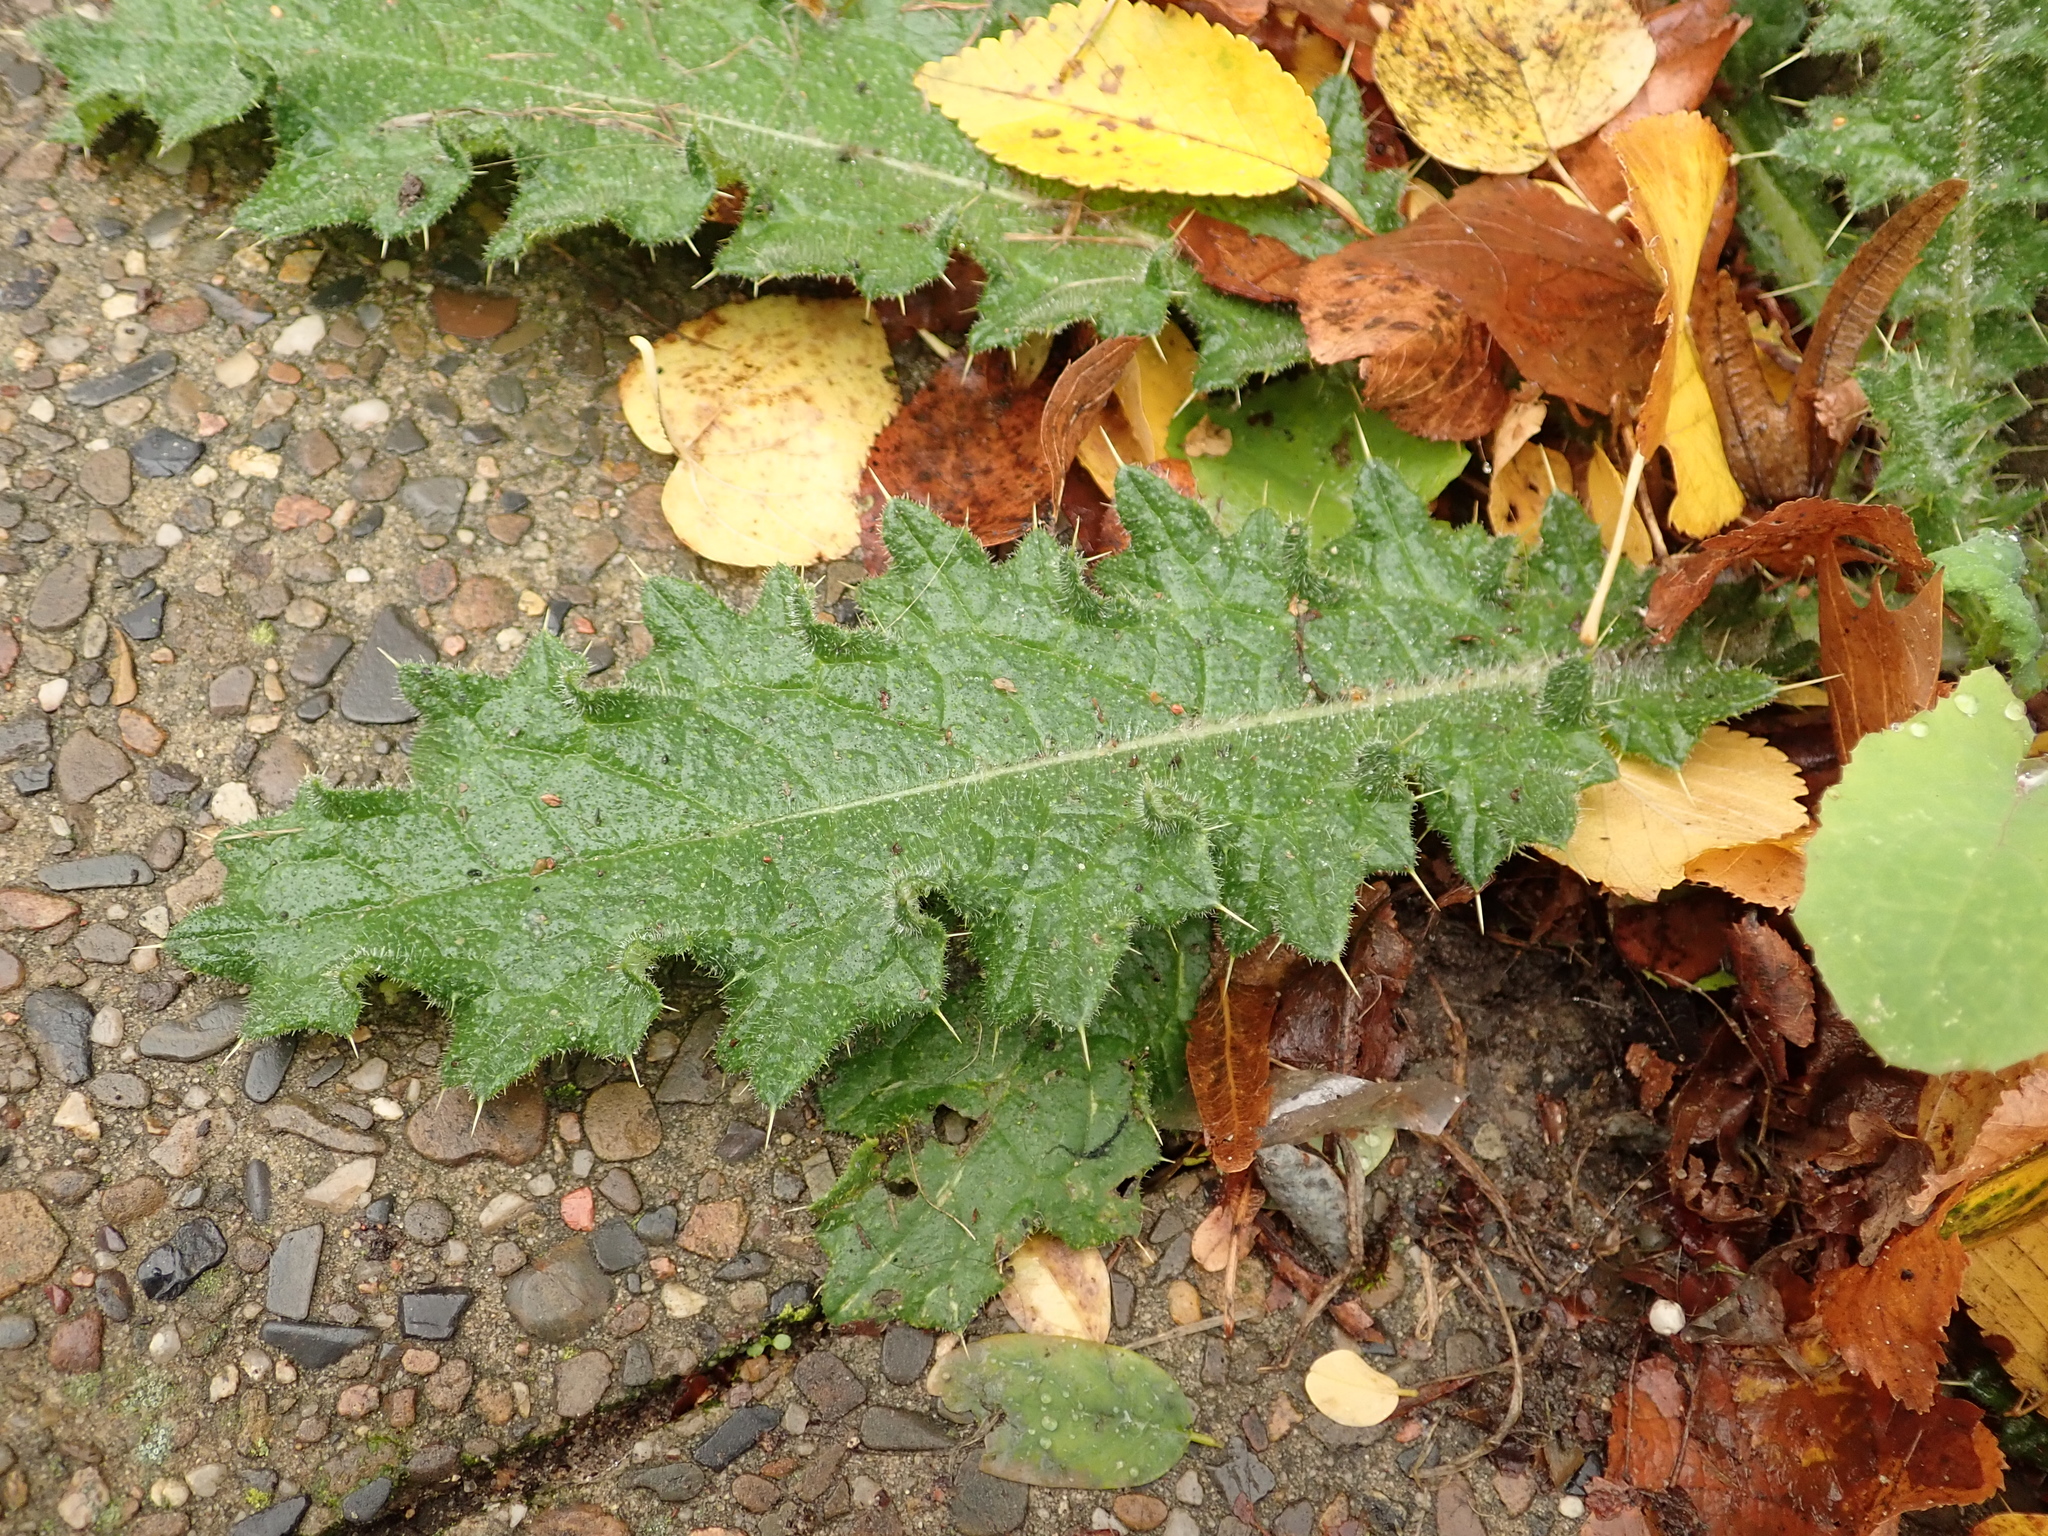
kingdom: Plantae
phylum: Tracheophyta
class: Magnoliopsida
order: Asterales
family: Asteraceae
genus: Cirsium
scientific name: Cirsium vulgare
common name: Bull thistle
